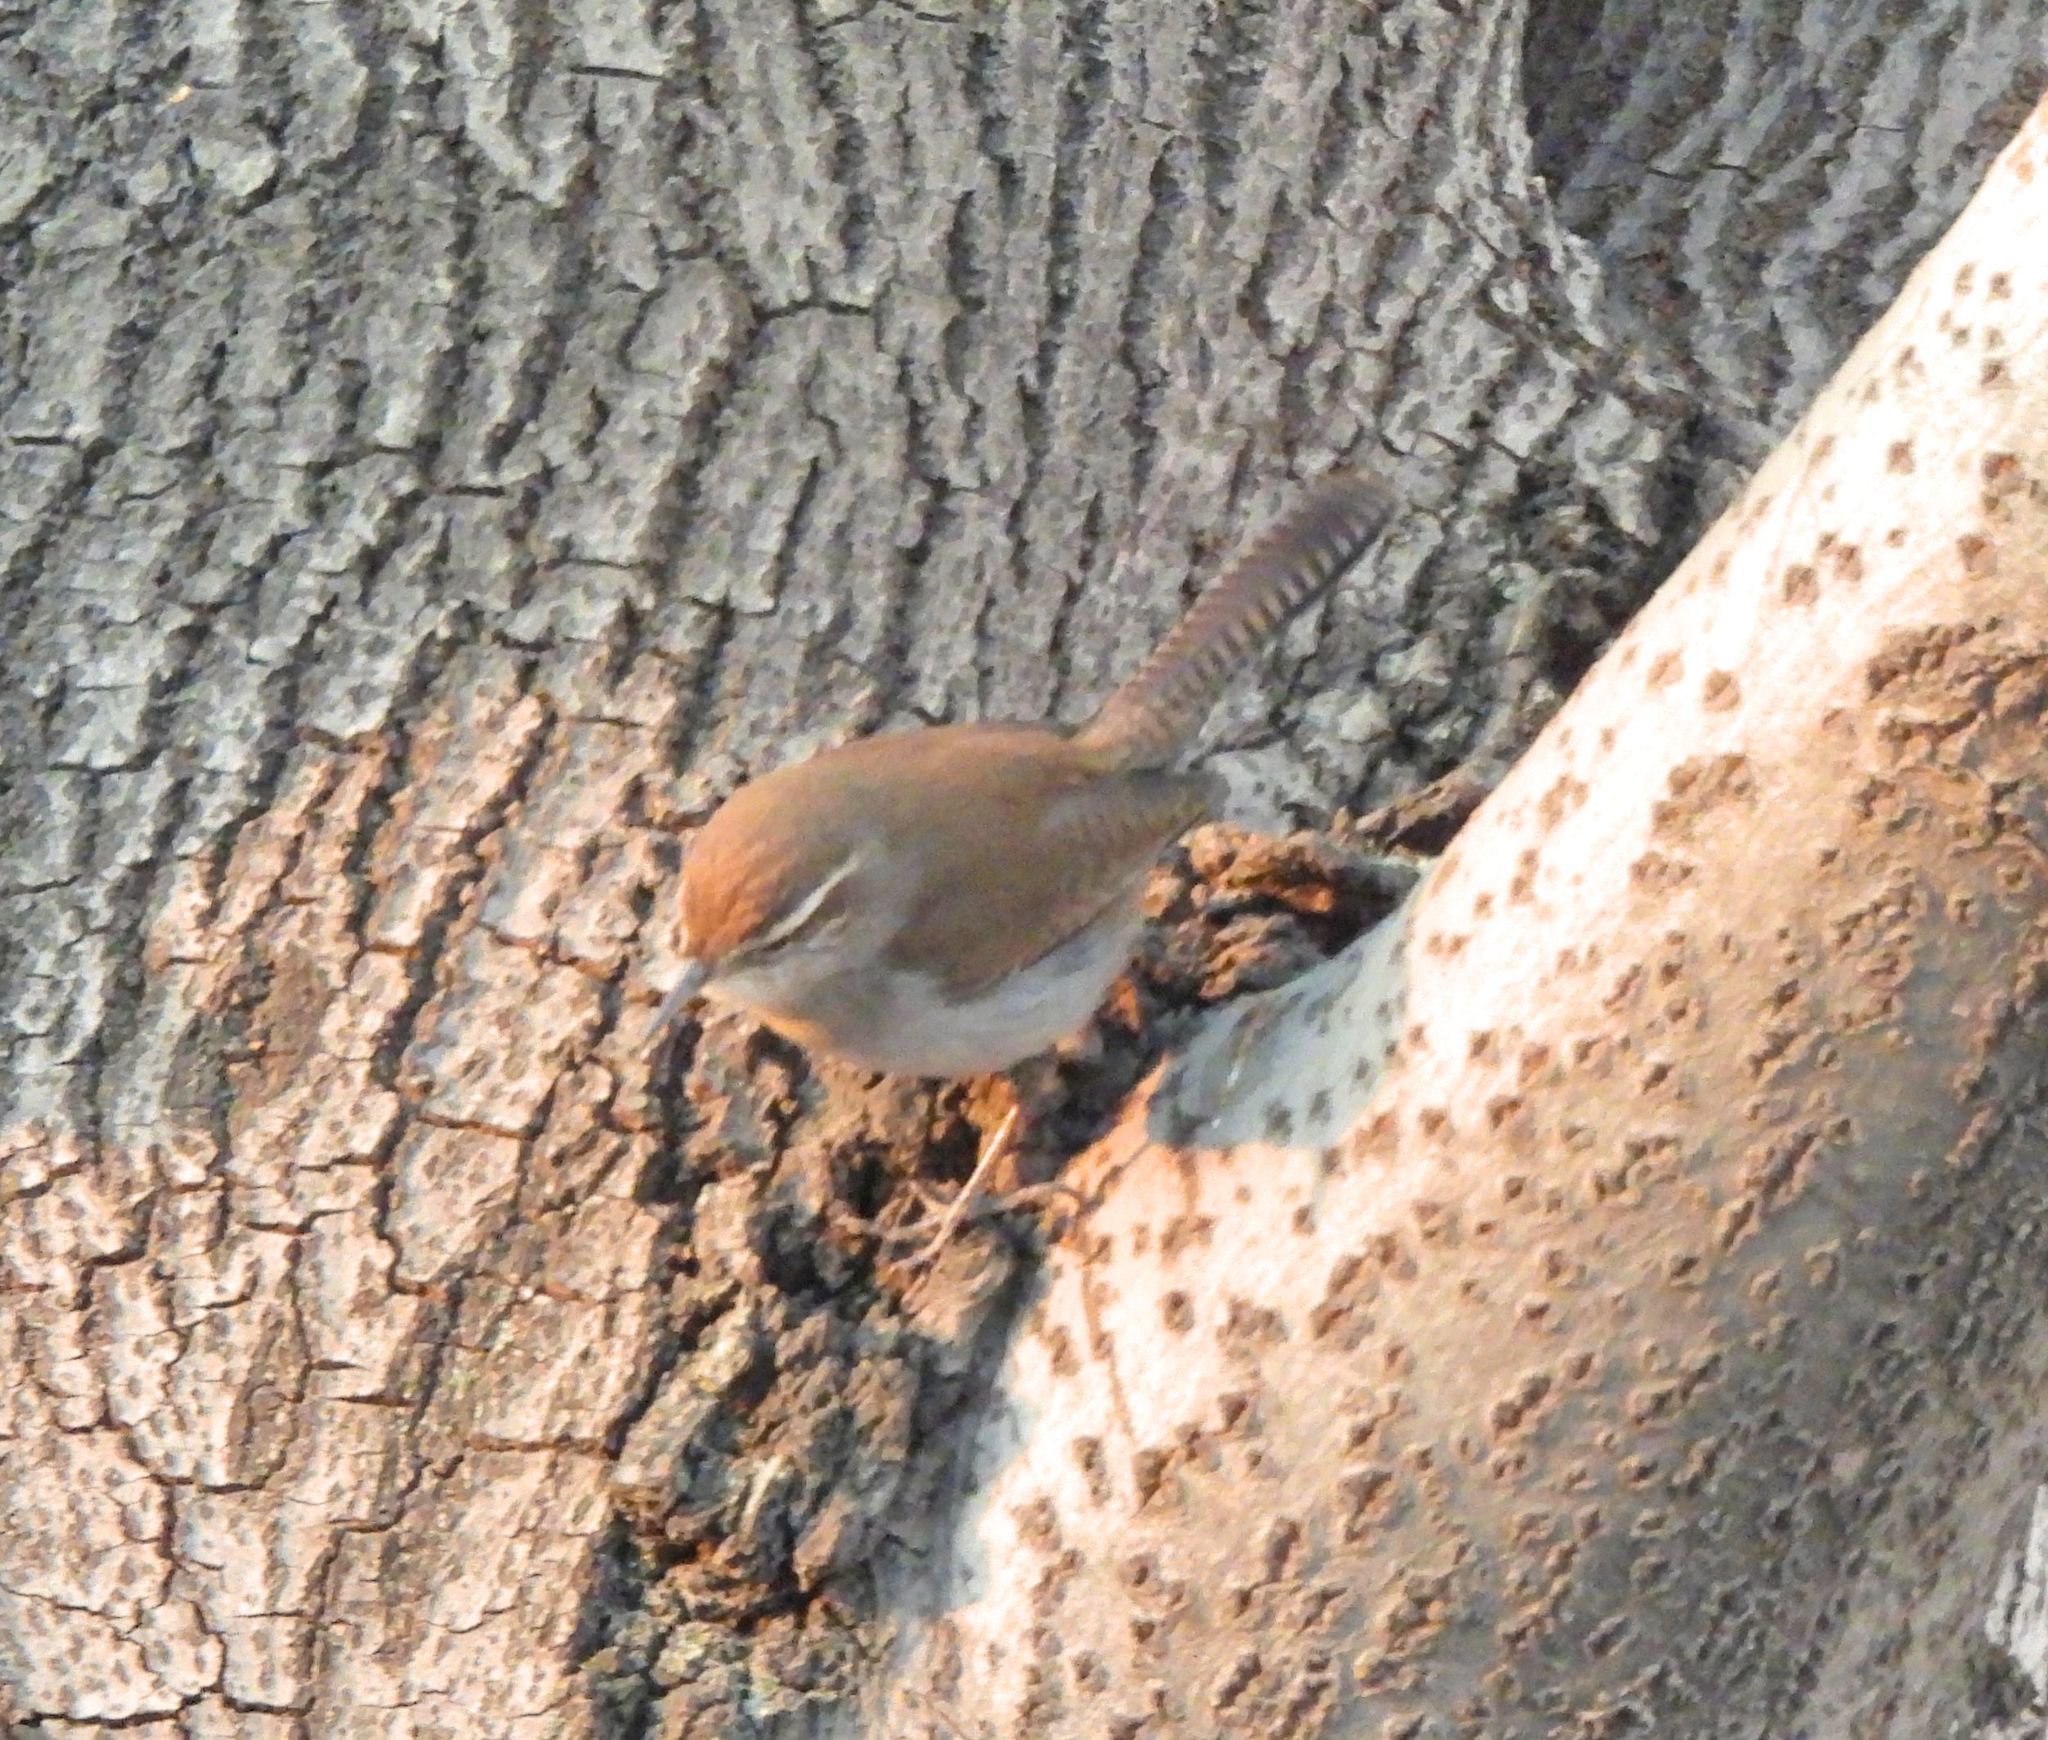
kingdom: Animalia
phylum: Chordata
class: Aves
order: Passeriformes
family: Troglodytidae
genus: Thryomanes
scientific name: Thryomanes bewickii
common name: Bewick's wren
